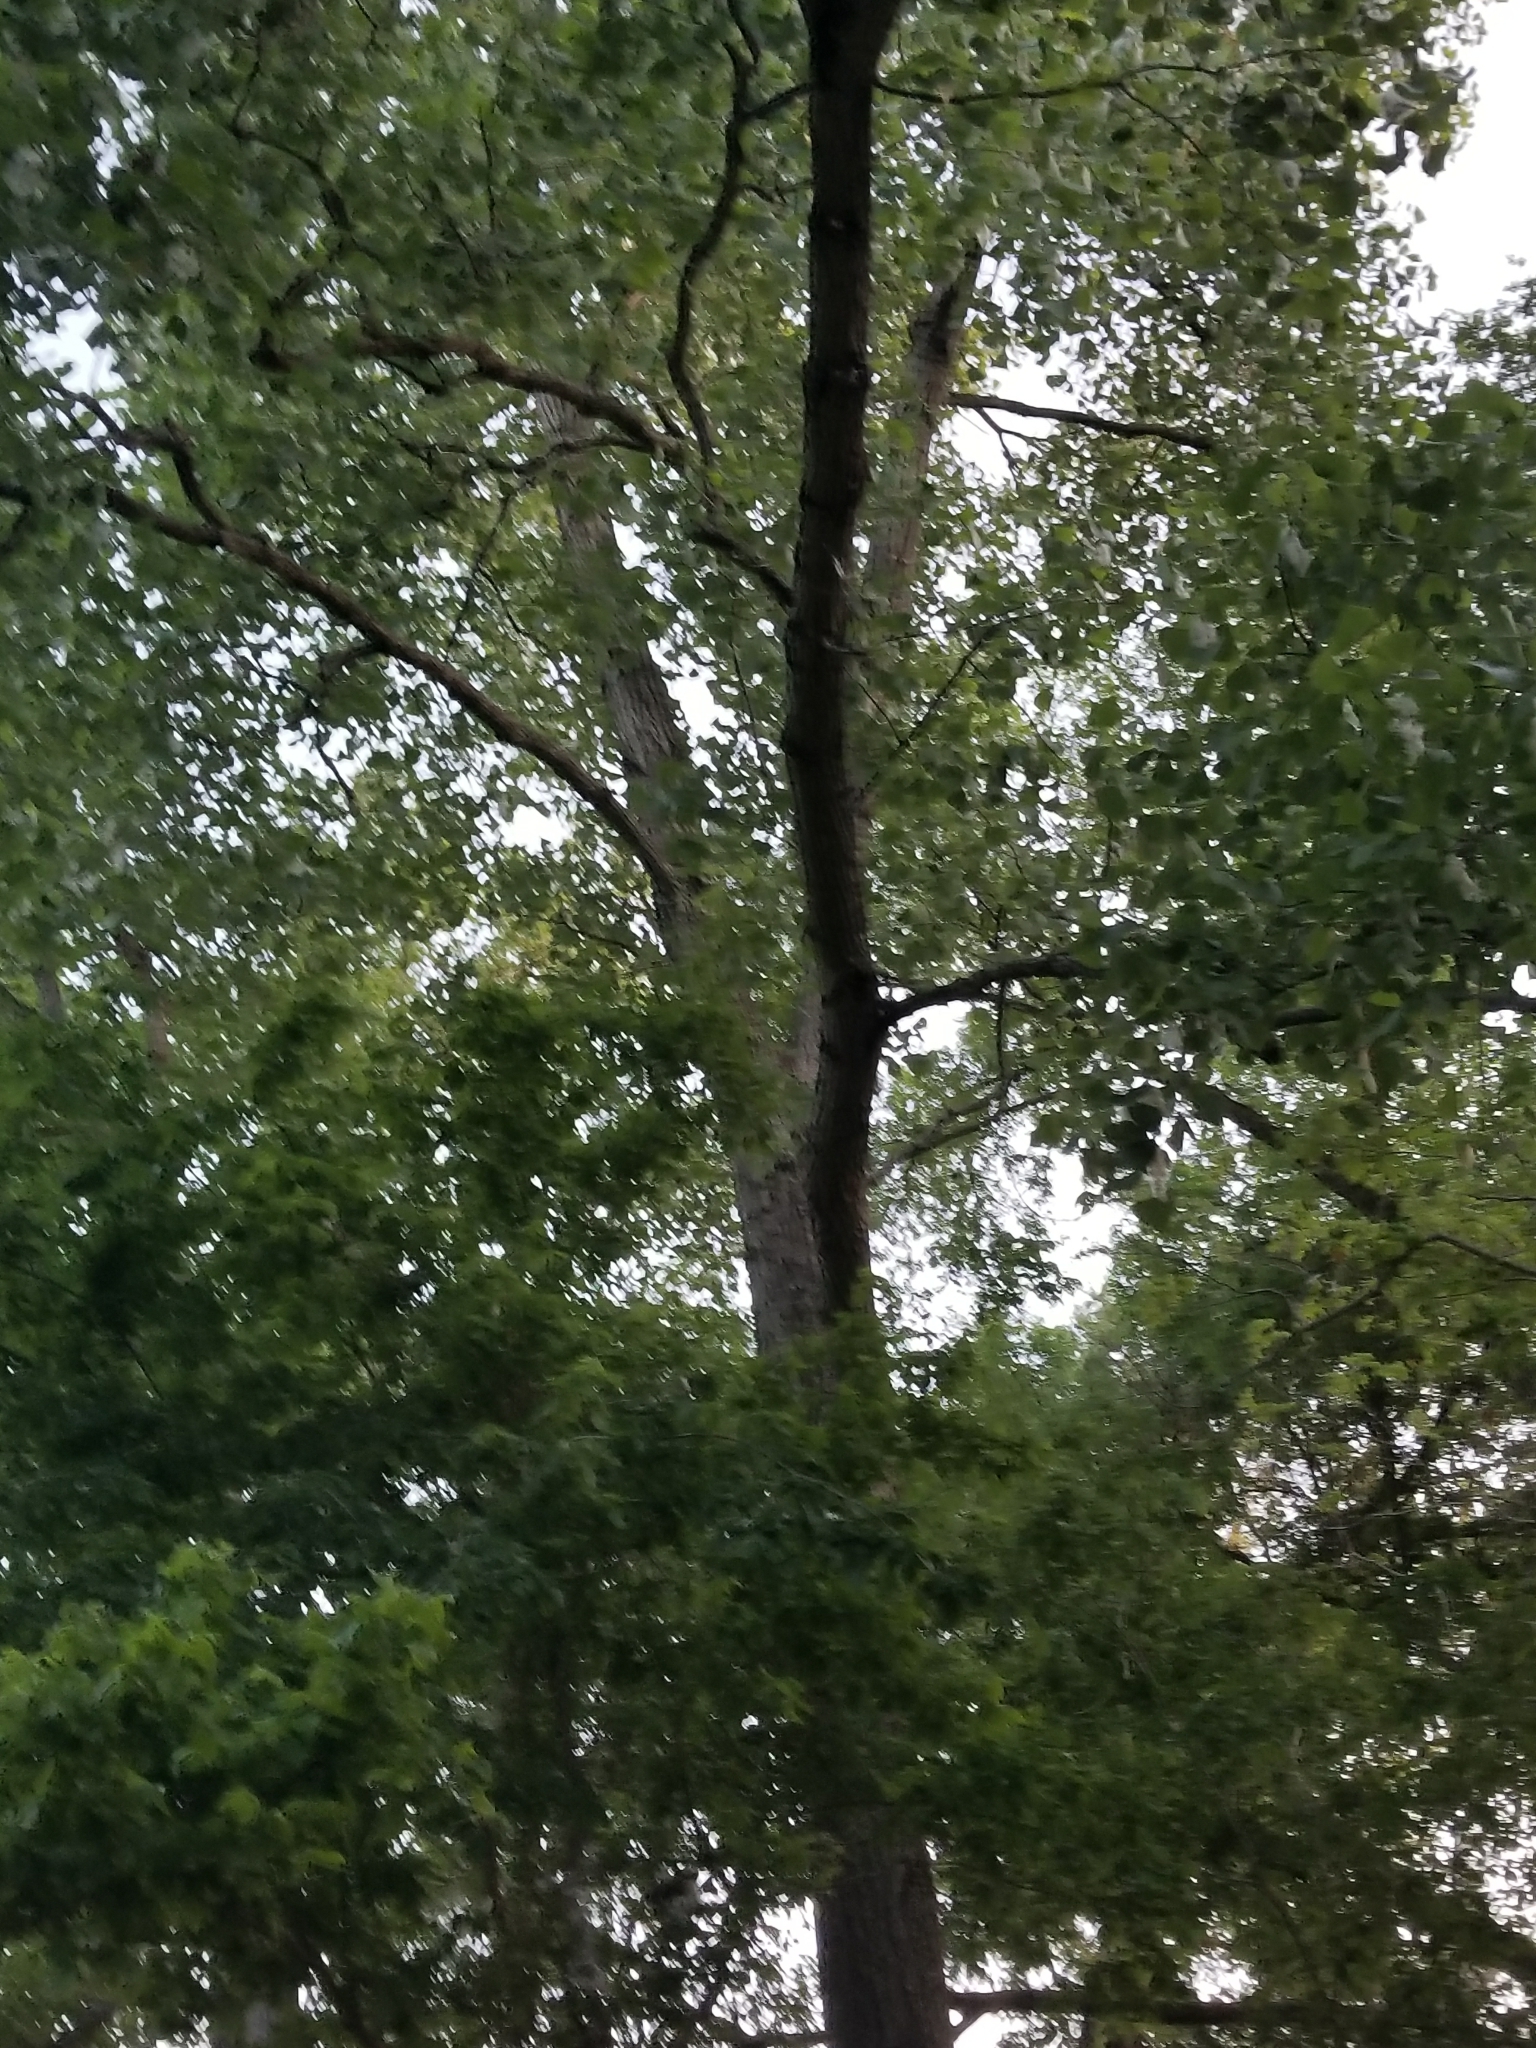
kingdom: Plantae
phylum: Tracheophyta
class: Magnoliopsida
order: Malpighiales
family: Salicaceae
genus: Populus
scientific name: Populus deltoides
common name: Eastern cottonwood
